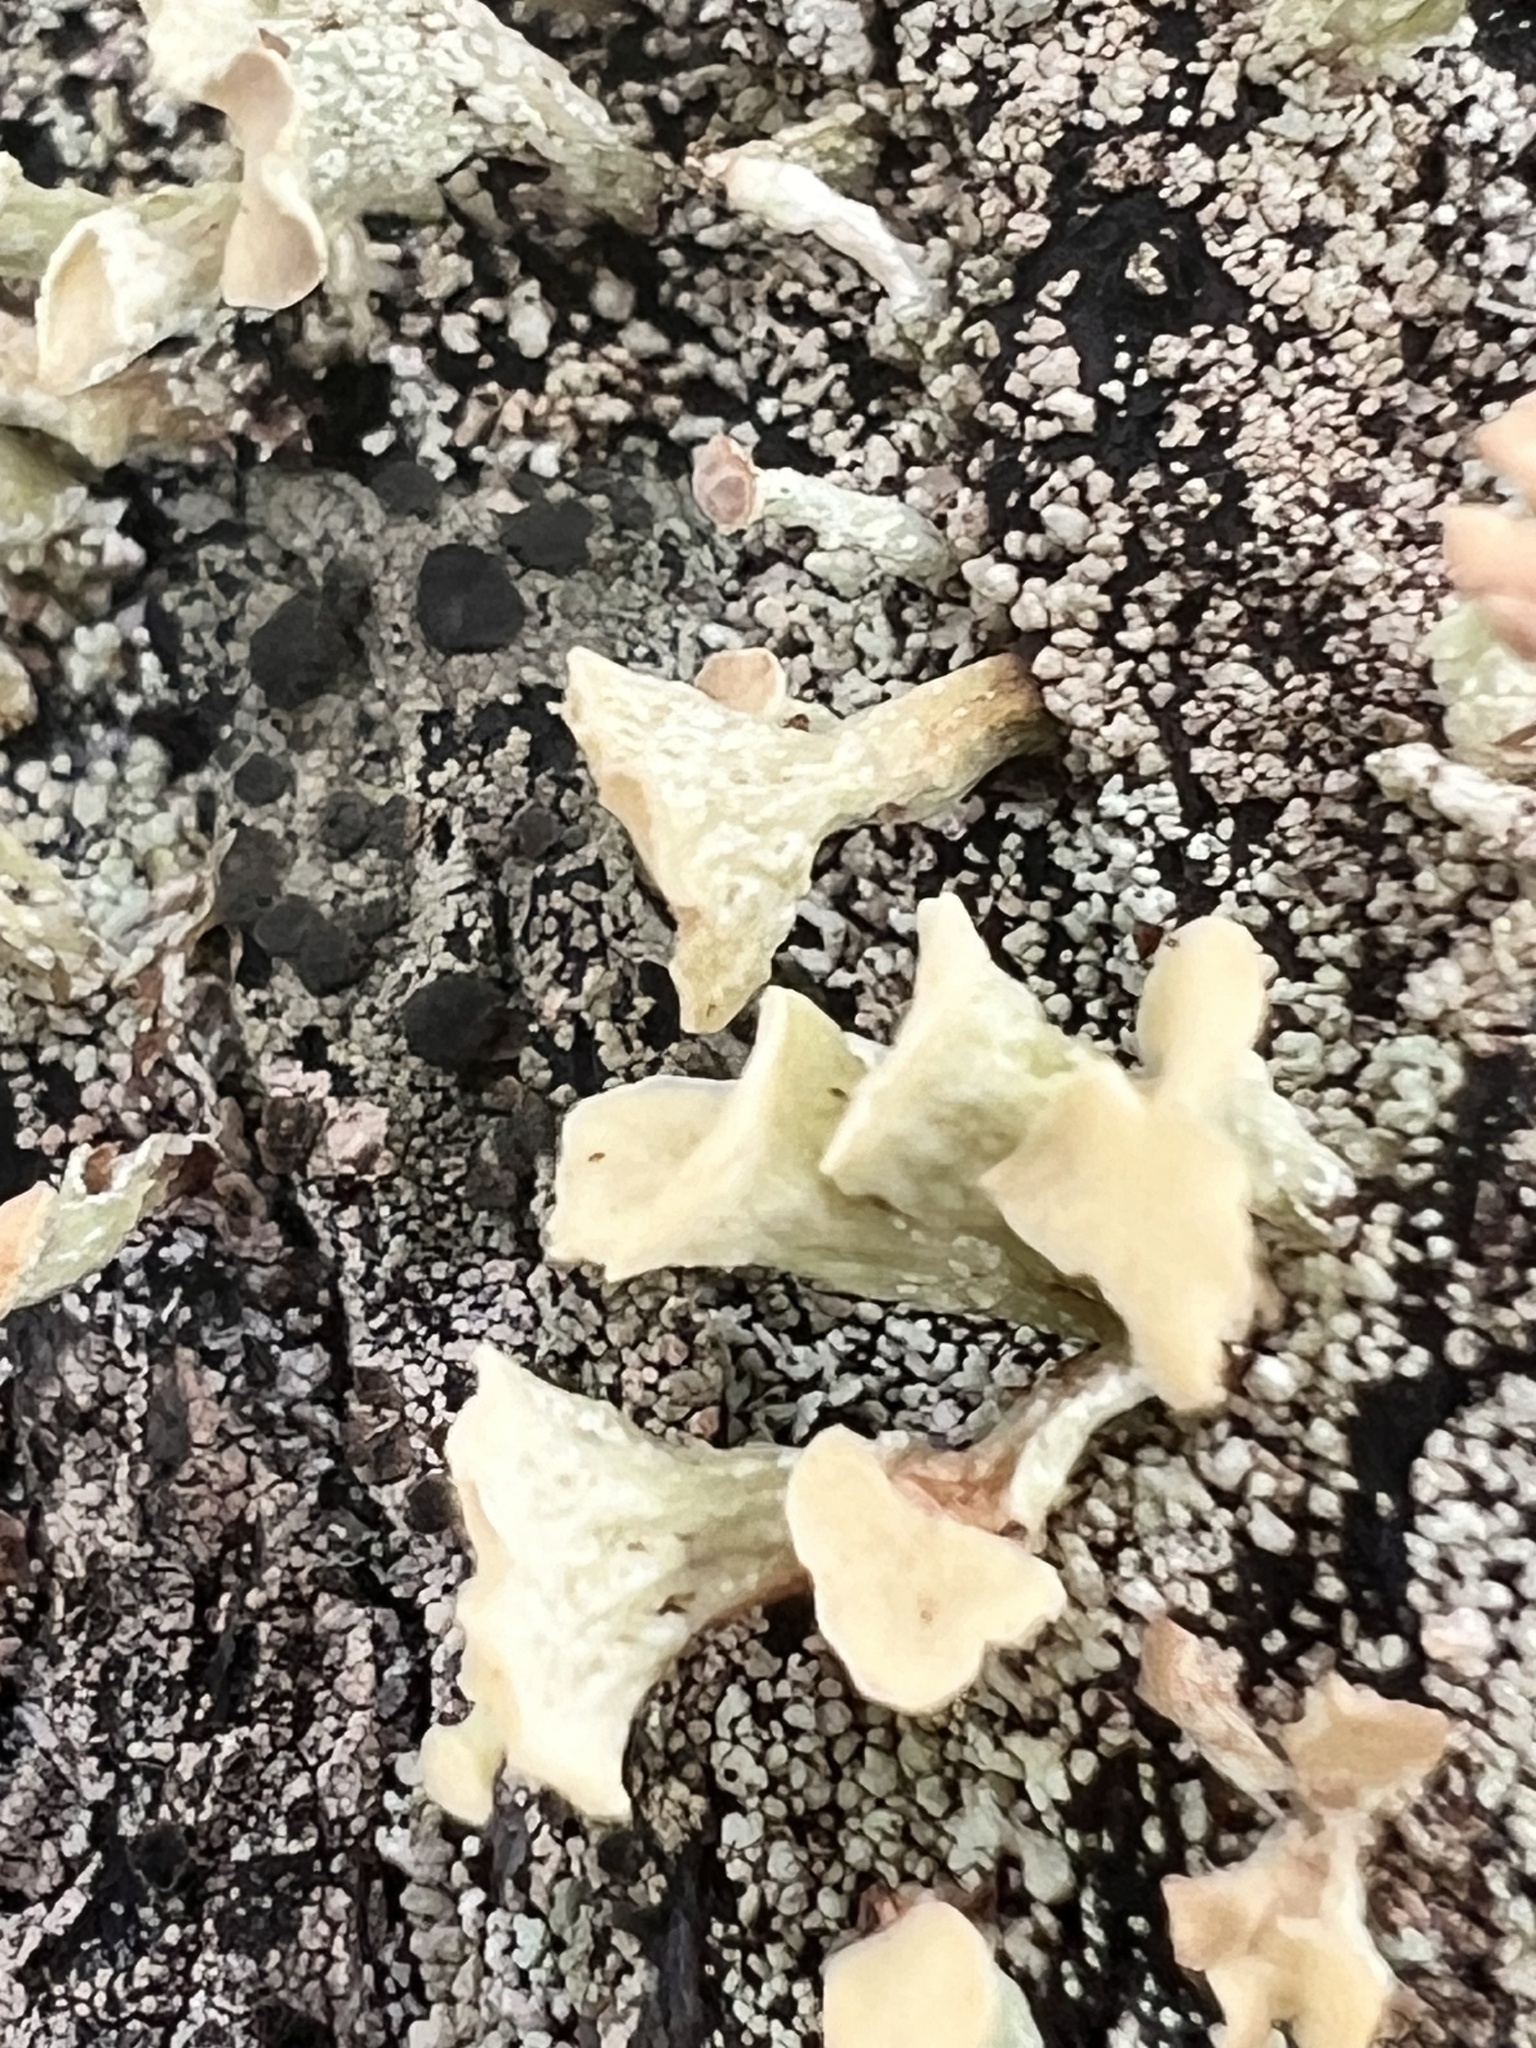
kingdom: Fungi
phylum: Ascomycota
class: Lecanoromycetes
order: Lecanorales
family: Cladoniaceae
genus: Thysanothecium
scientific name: Thysanothecium scutellatum
